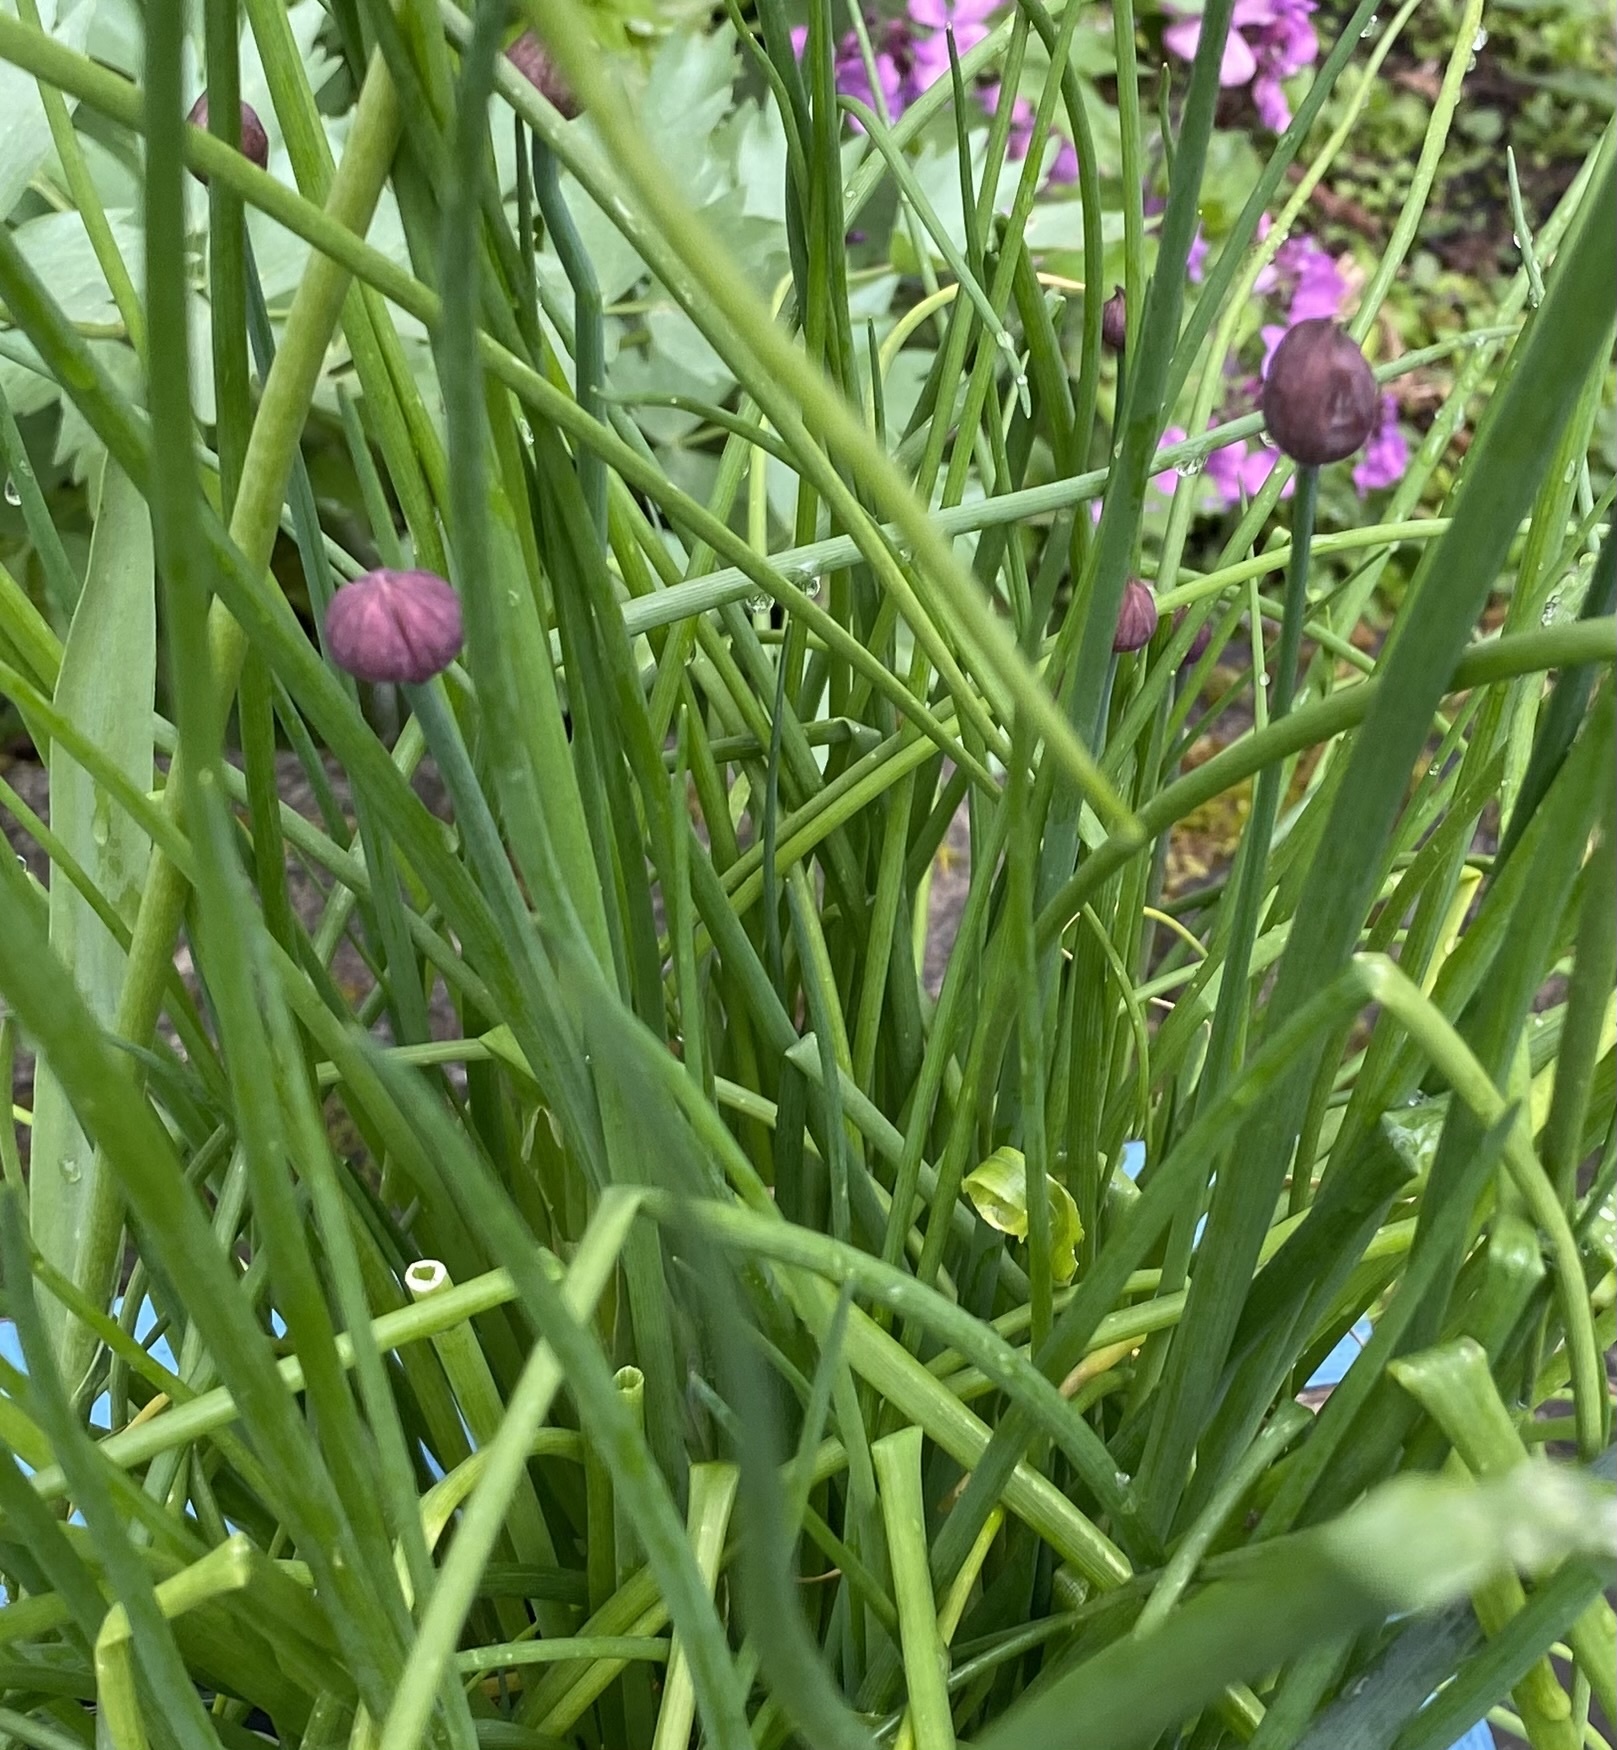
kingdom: Plantae
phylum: Tracheophyta
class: Liliopsida
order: Asparagales
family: Amaryllidaceae
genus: Allium
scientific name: Allium schoenoprasum
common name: Chives
